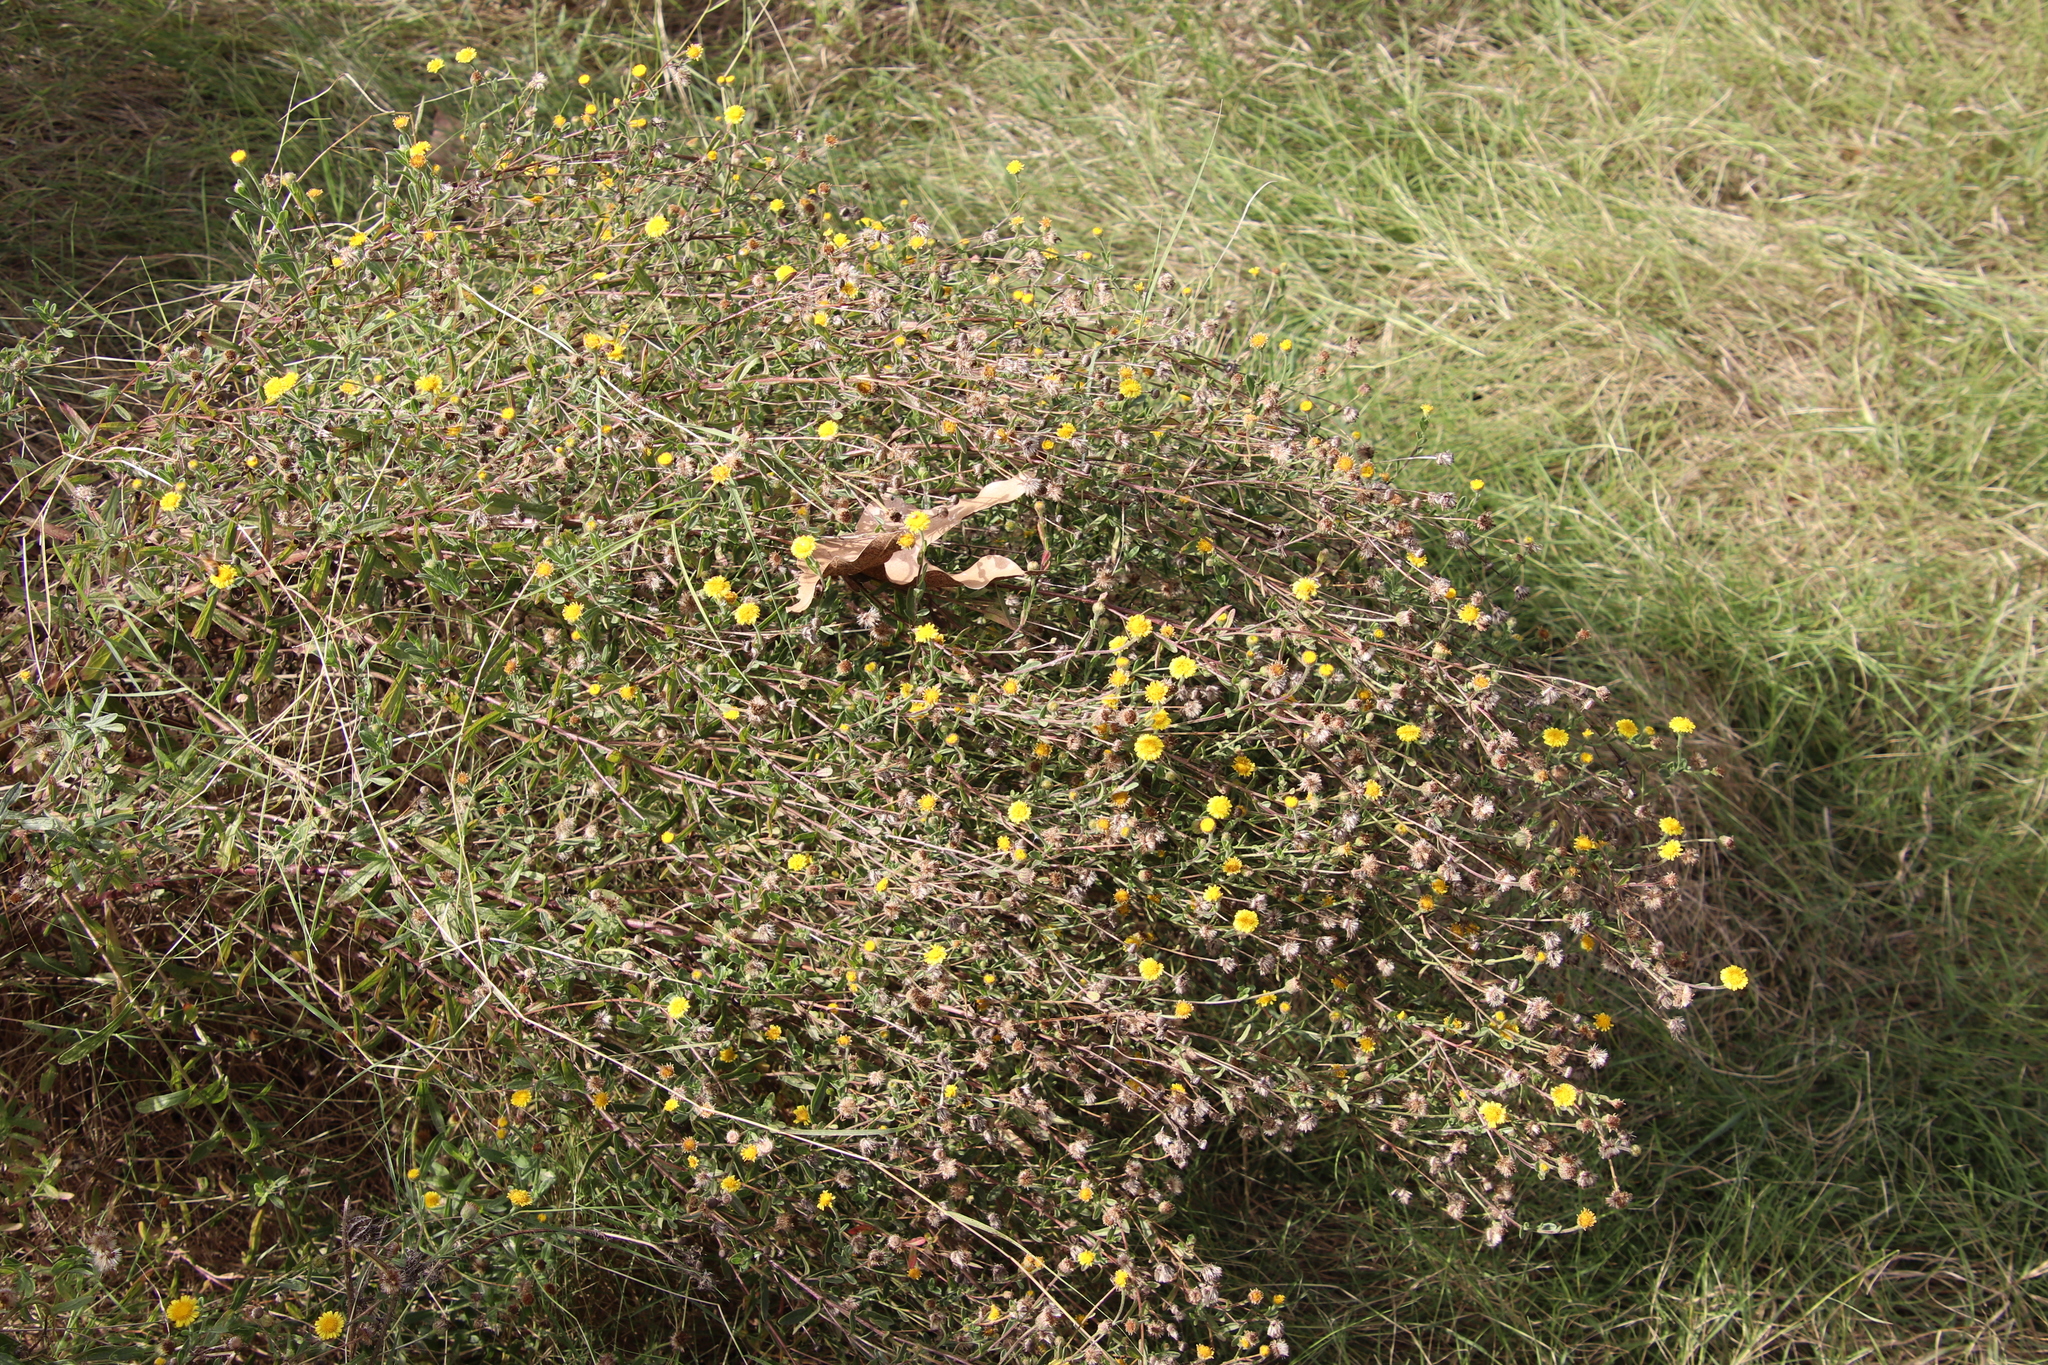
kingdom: Plantae
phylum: Tracheophyta
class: Magnoliopsida
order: Asterales
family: Asteraceae
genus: Pulicaria
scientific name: Pulicaria paludosa
